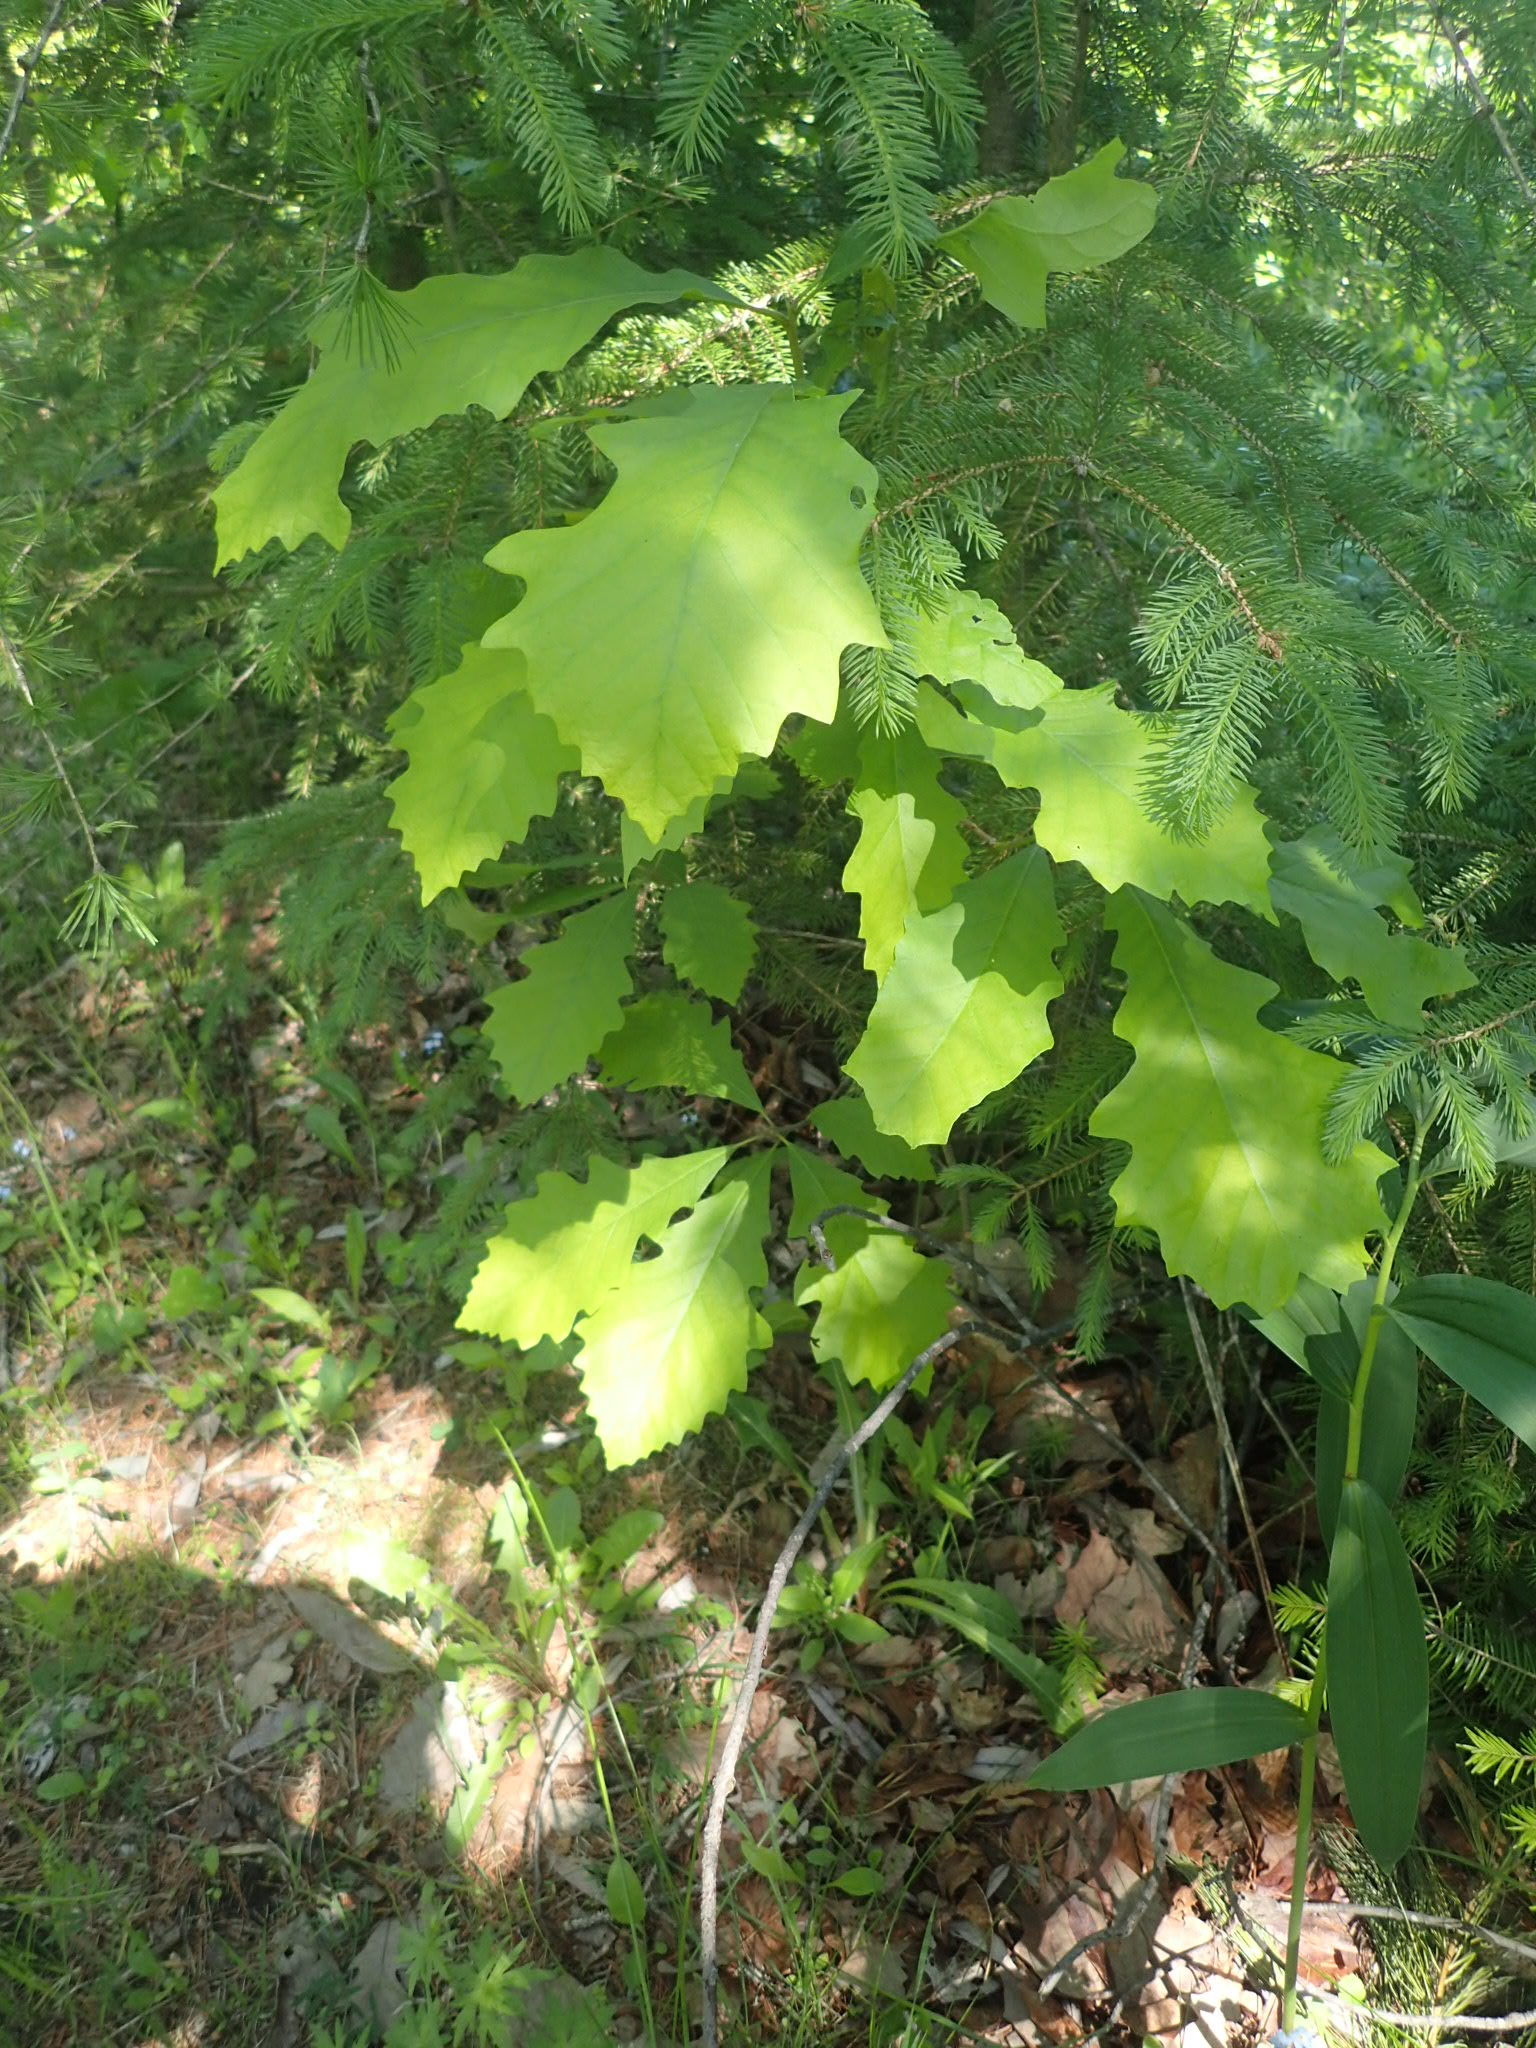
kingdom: Plantae
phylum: Tracheophyta
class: Magnoliopsida
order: Fagales
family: Fagaceae
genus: Quercus
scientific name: Quercus macrocarpa
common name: Bur oak
